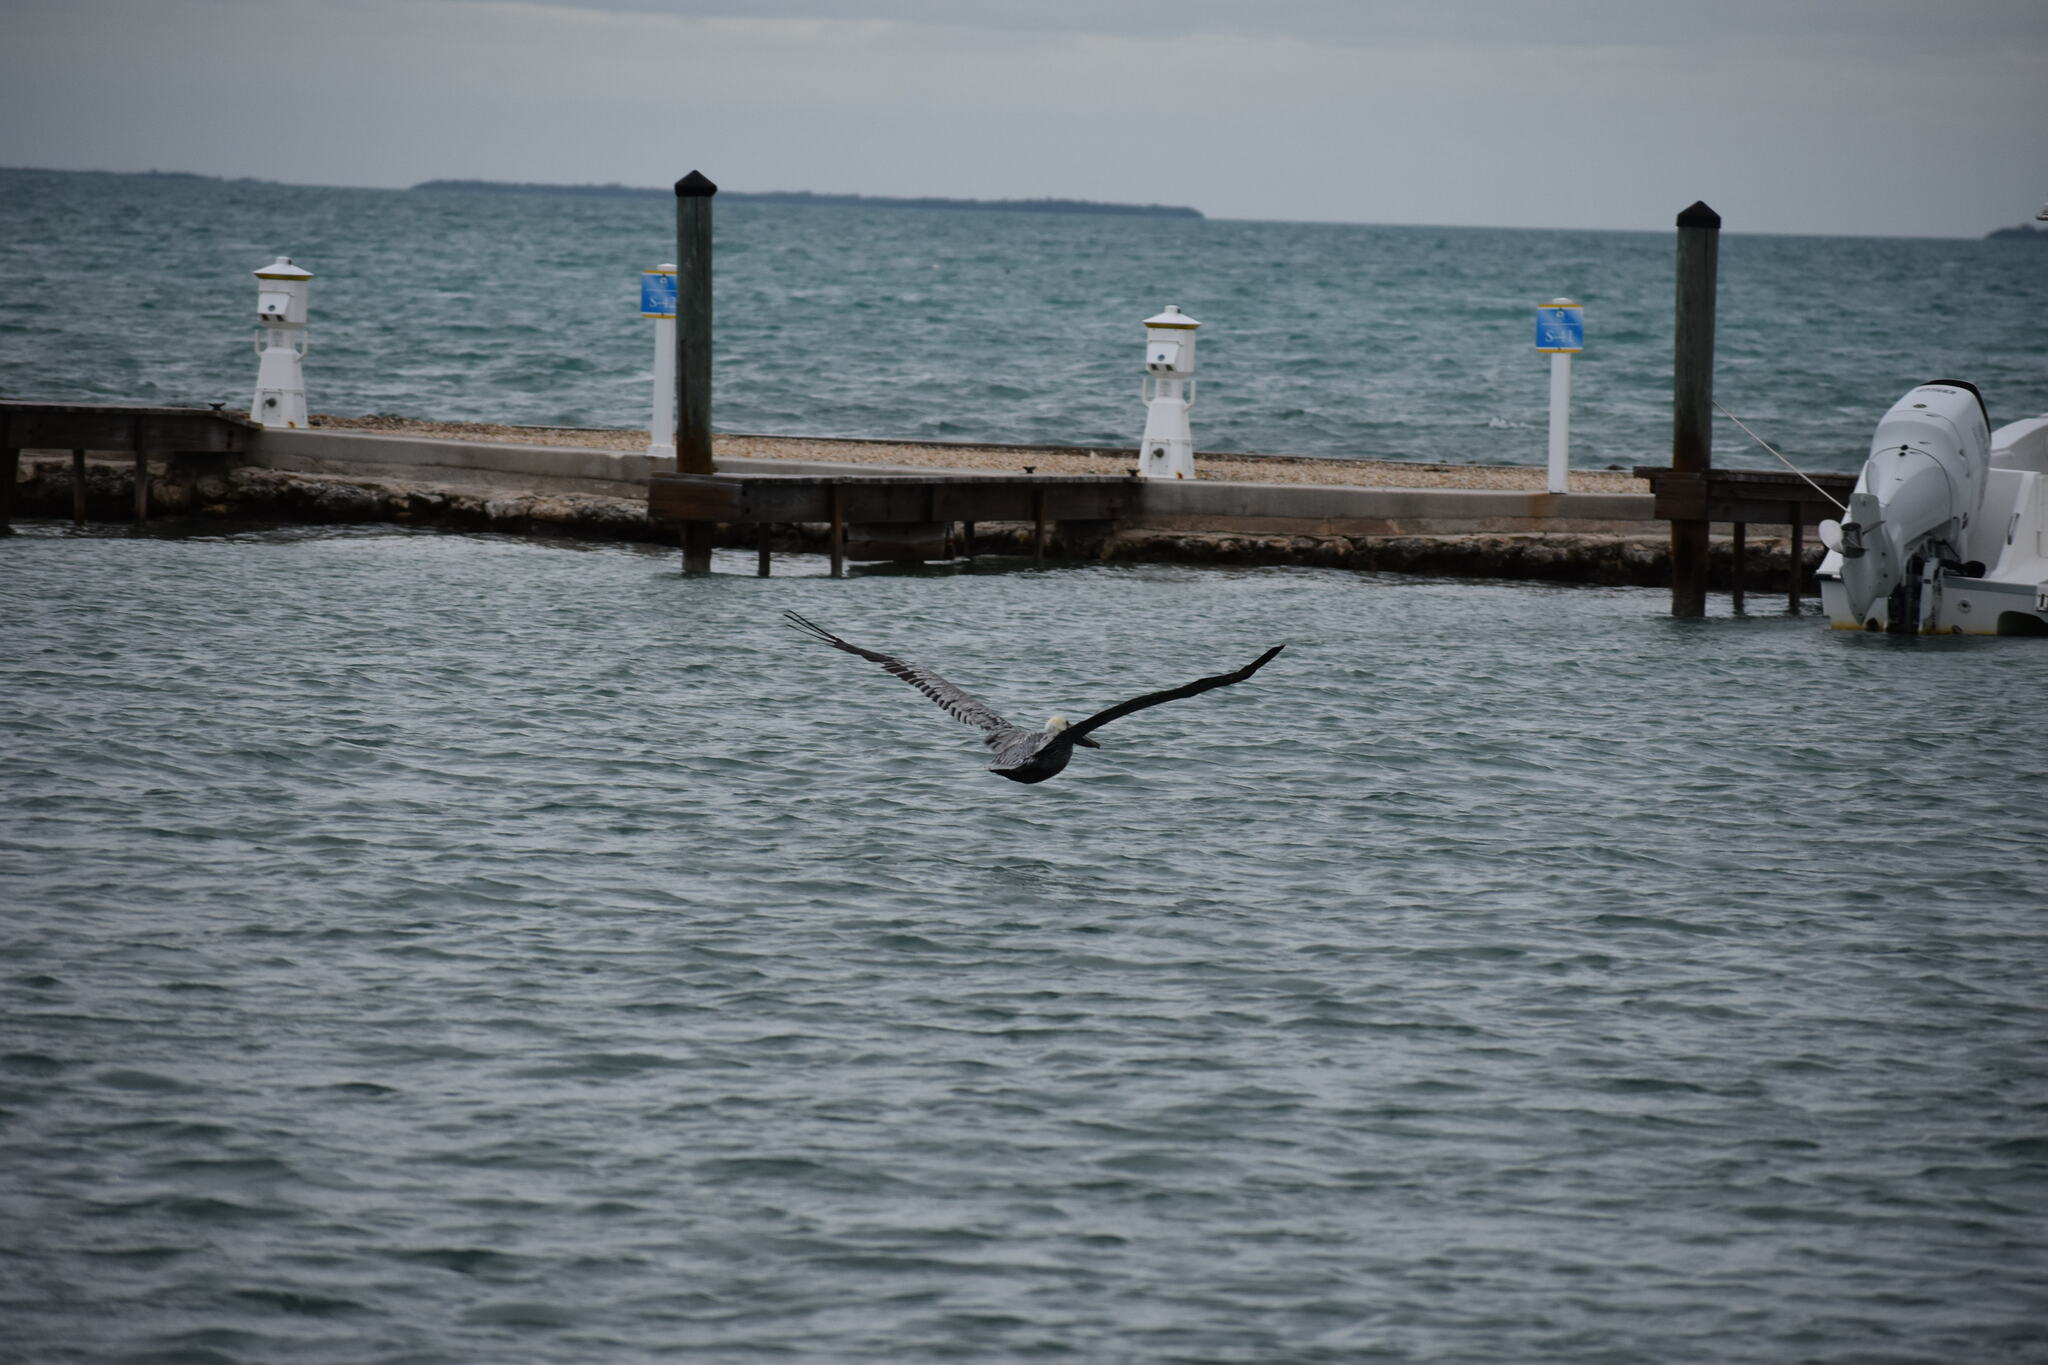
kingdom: Animalia
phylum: Chordata
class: Aves
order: Pelecaniformes
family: Pelecanidae
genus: Pelecanus
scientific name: Pelecanus occidentalis
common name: Brown pelican
